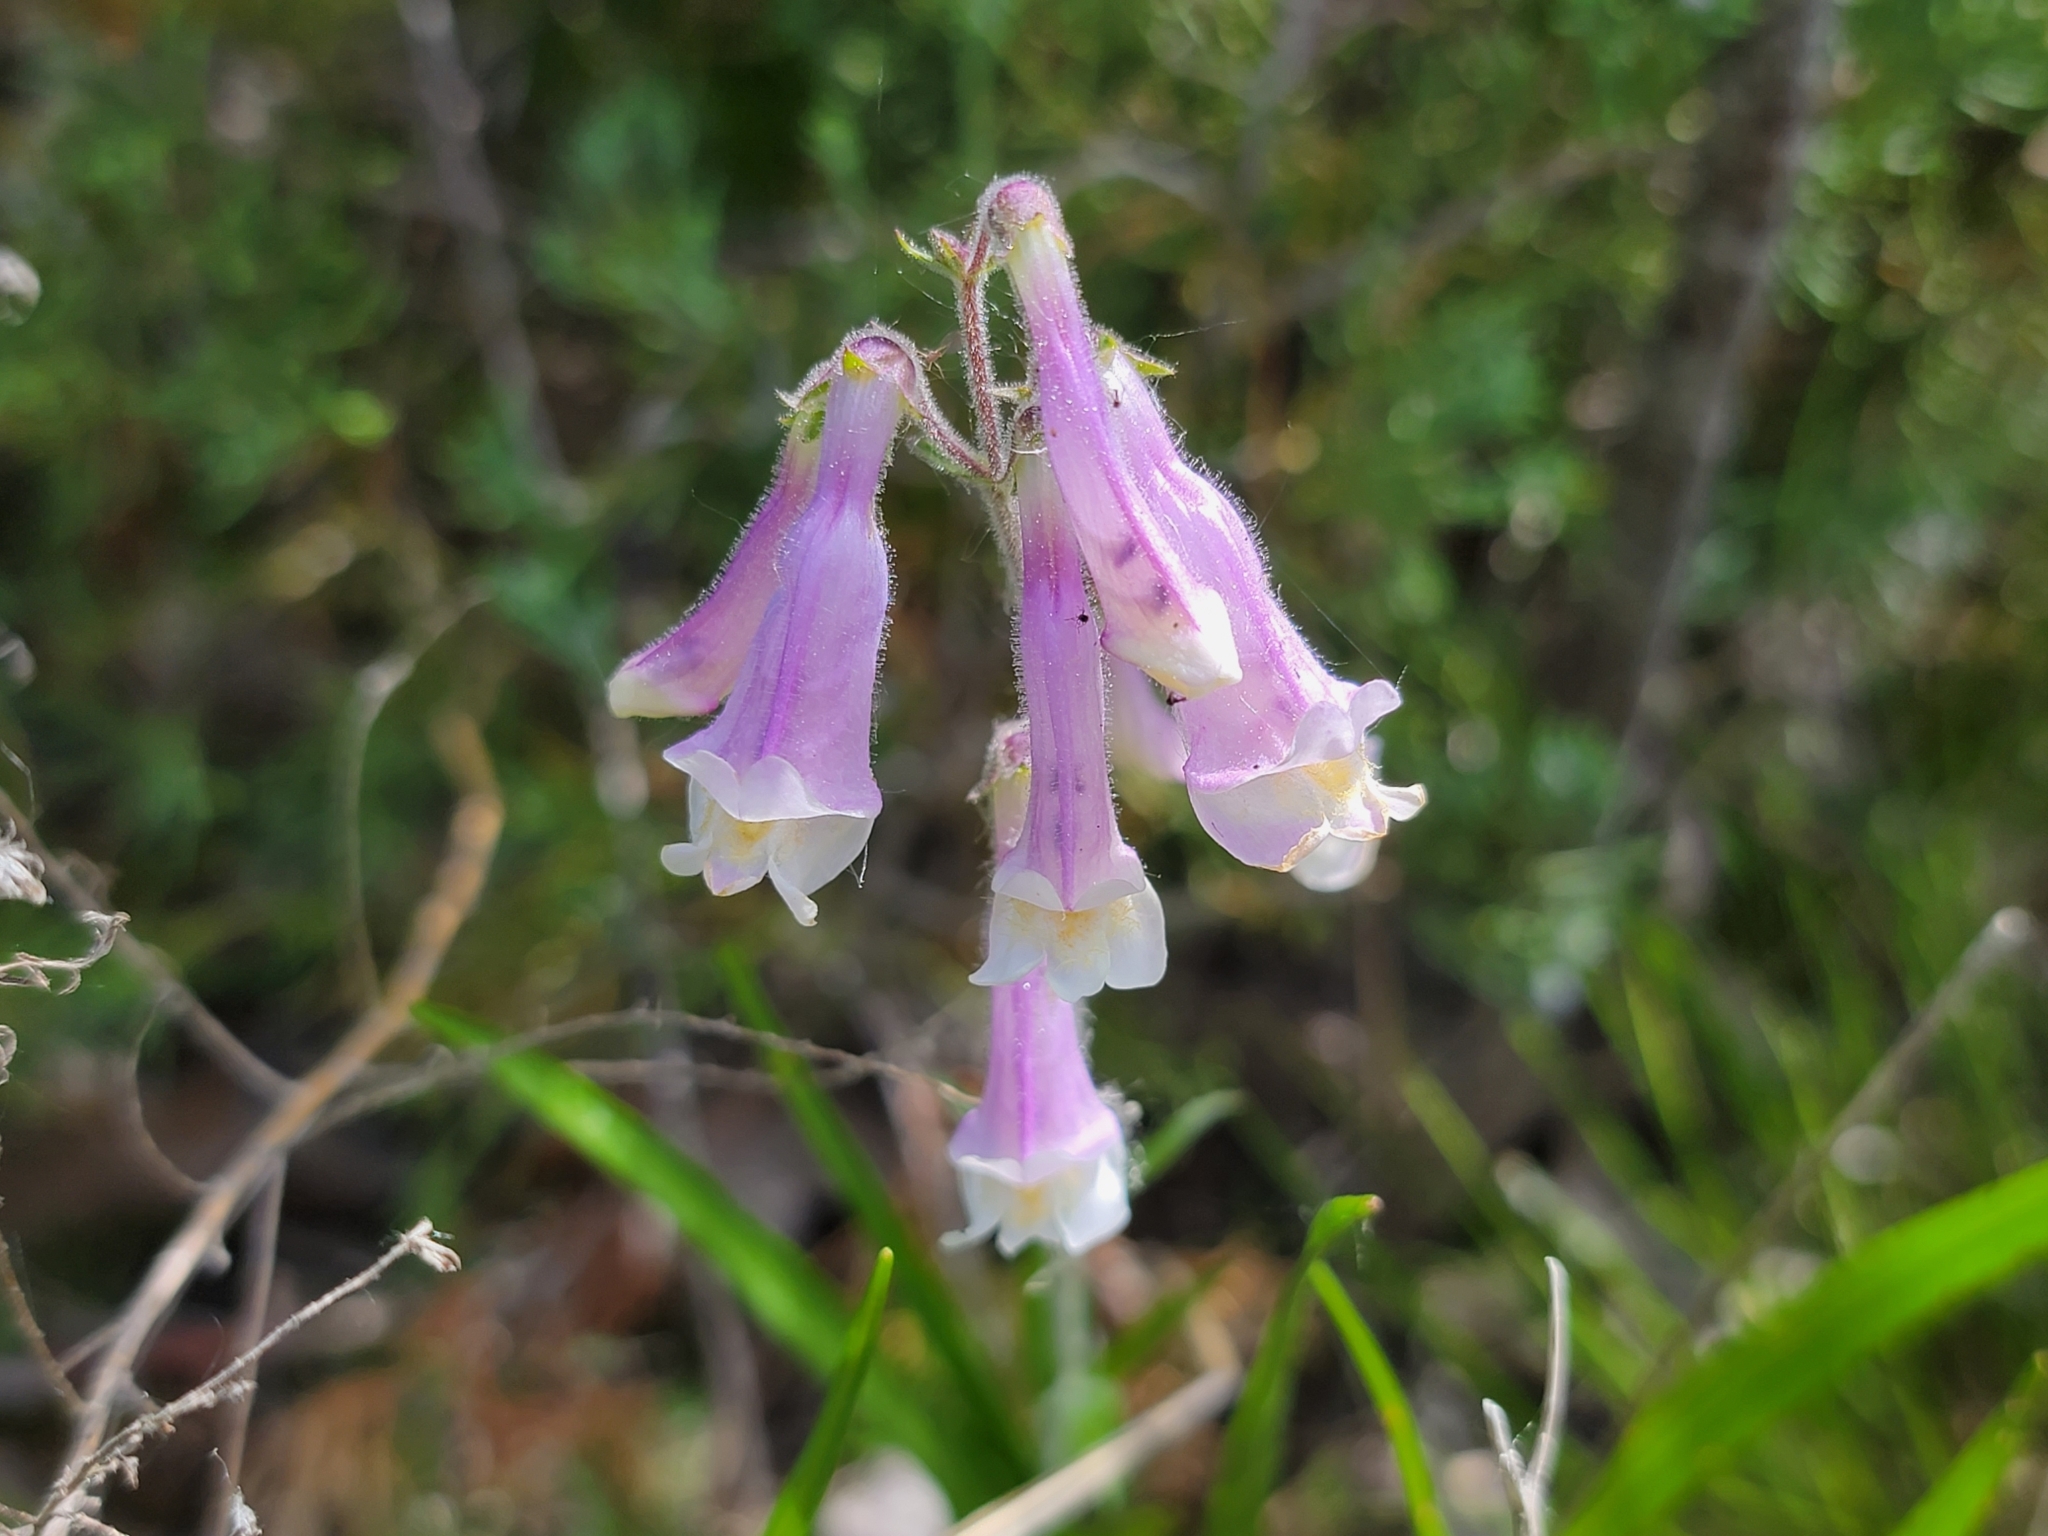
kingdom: Plantae
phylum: Tracheophyta
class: Magnoliopsida
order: Lamiales
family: Plantaginaceae
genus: Penstemon
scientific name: Penstemon hirsutus
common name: Hairy beardtongue
